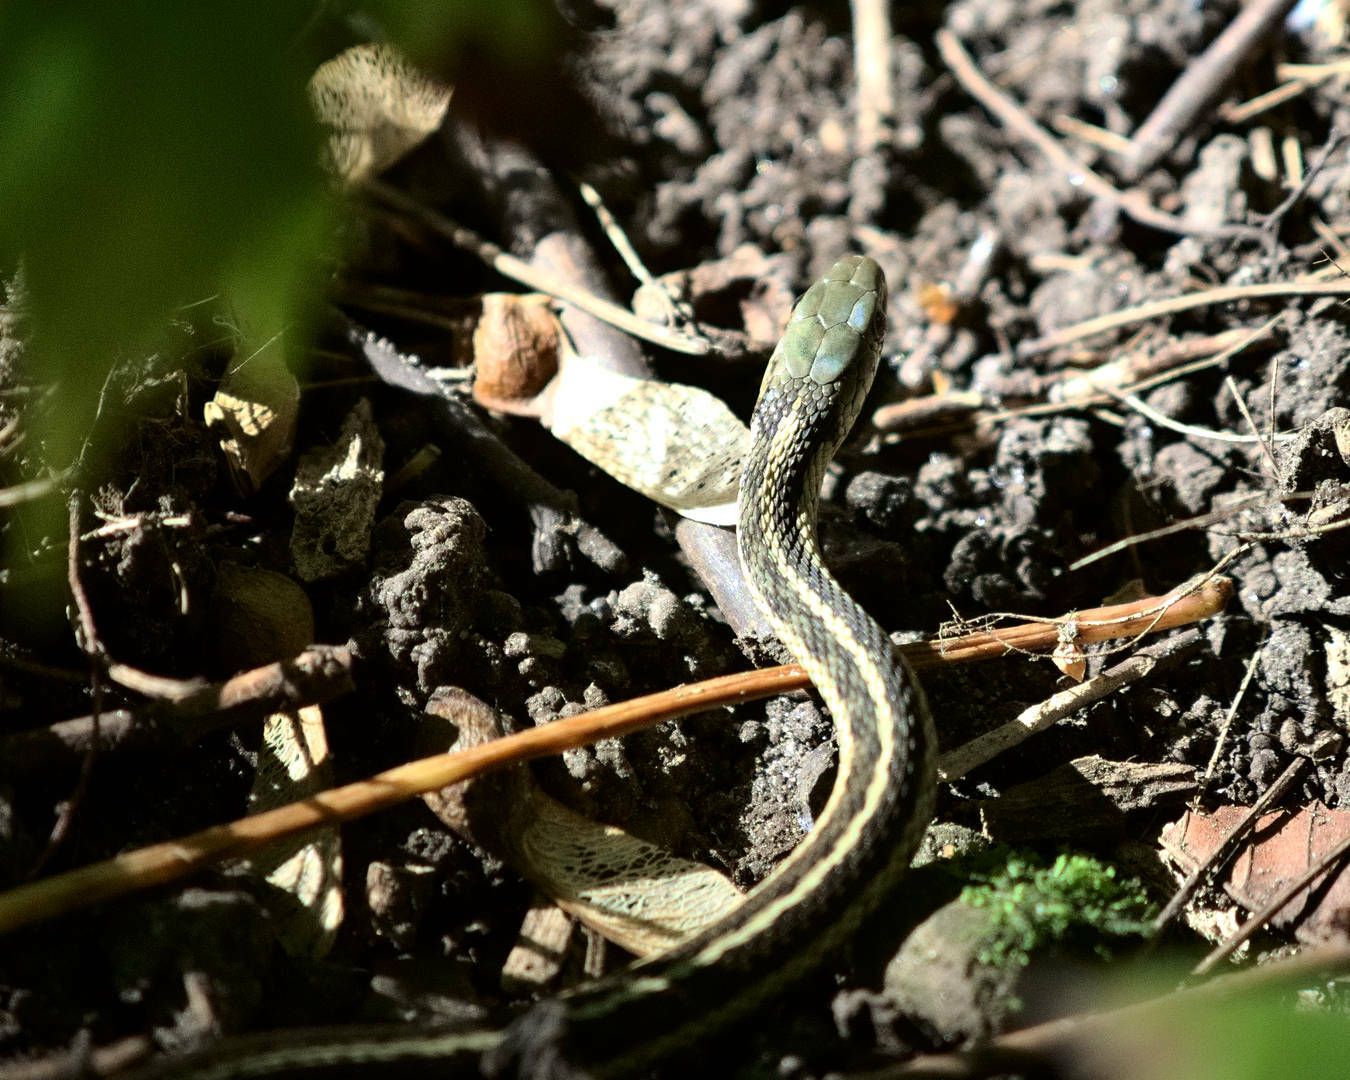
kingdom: Animalia
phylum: Chordata
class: Squamata
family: Colubridae
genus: Thamnophis
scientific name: Thamnophis sirtalis
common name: Common garter snake
